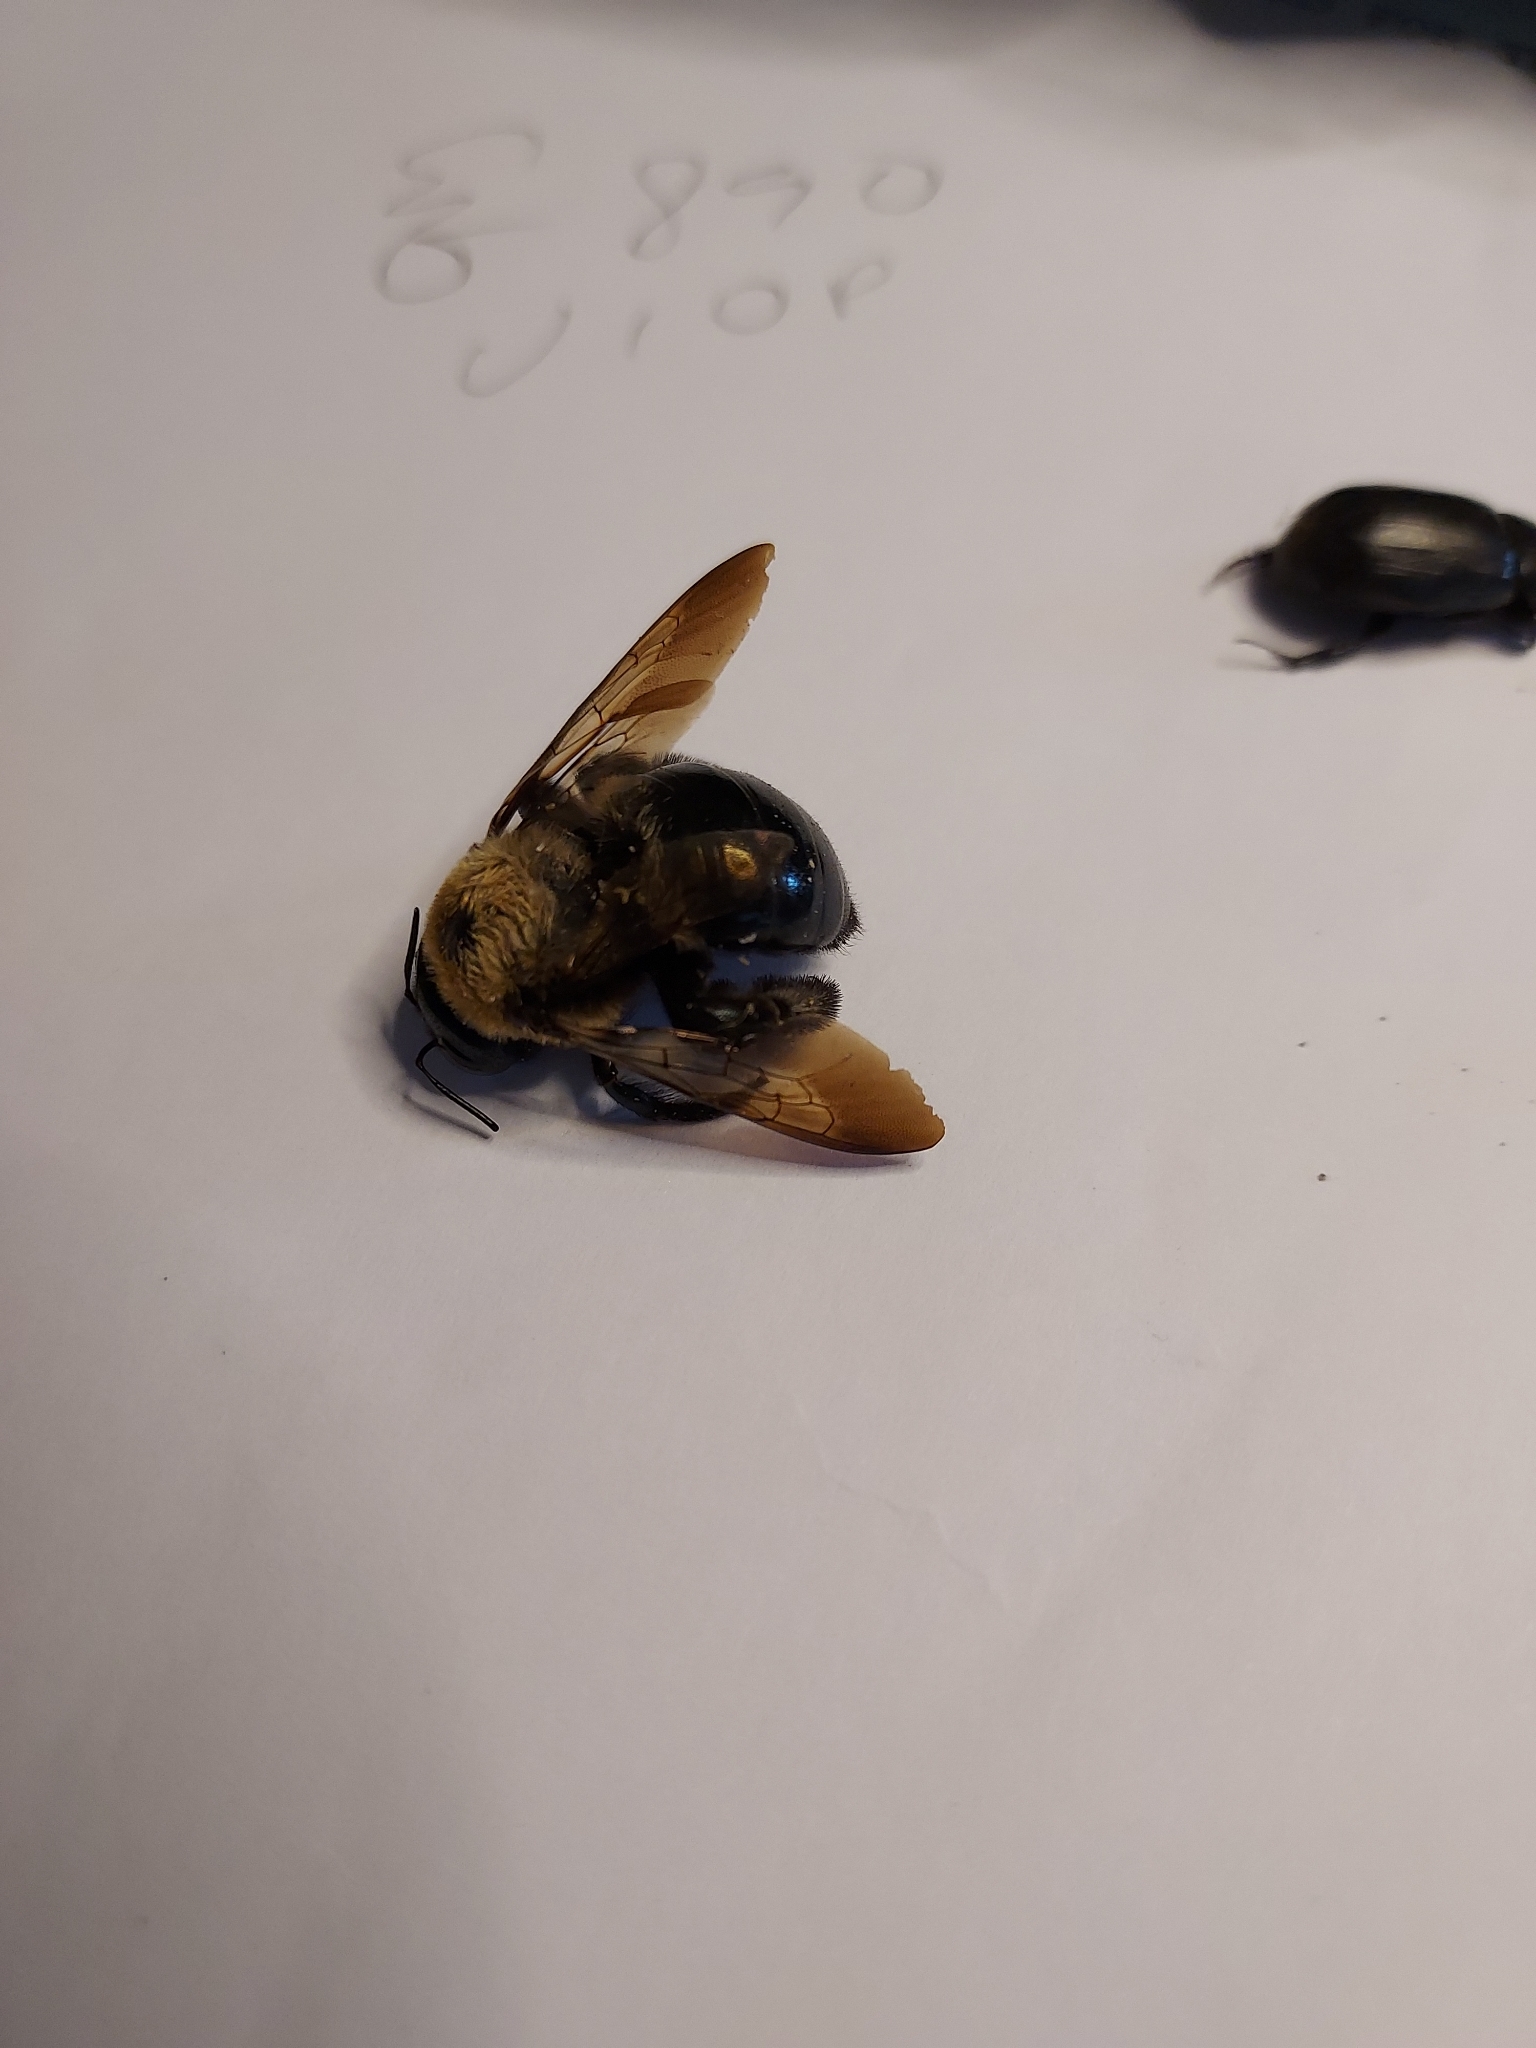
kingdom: Animalia
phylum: Arthropoda
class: Insecta
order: Hymenoptera
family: Apidae
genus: Xylocopa
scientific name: Xylocopa virginica
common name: Carpenter bee
